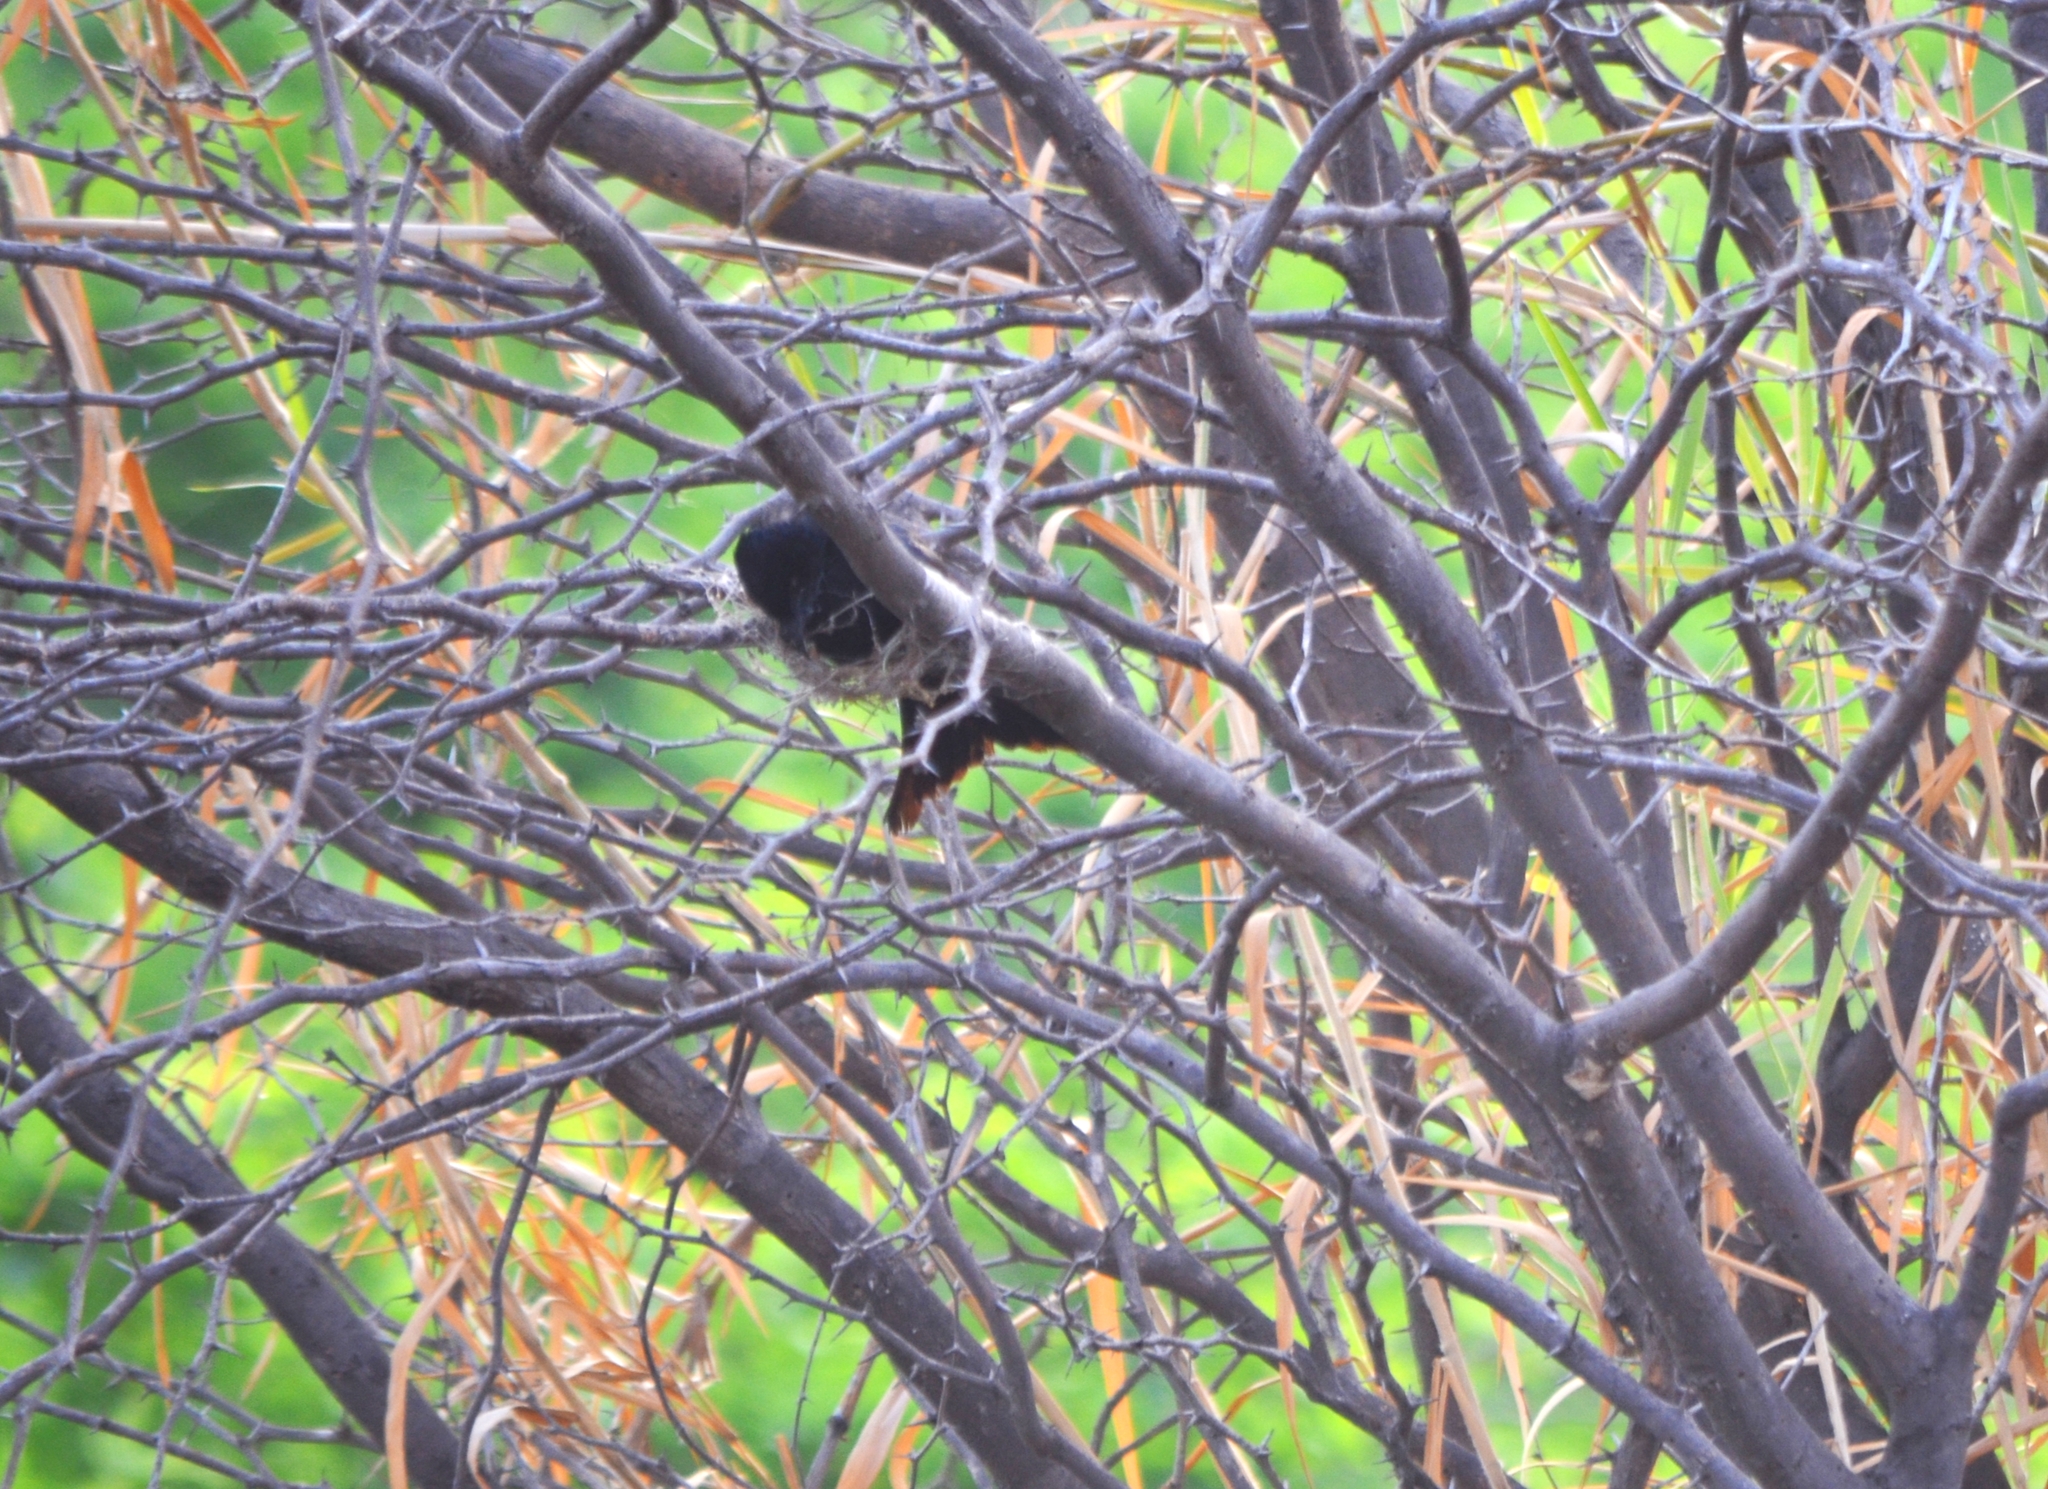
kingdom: Animalia
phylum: Chordata
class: Aves
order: Passeriformes
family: Dicruridae
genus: Dicrurus
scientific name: Dicrurus macrocercus
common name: Black drongo
